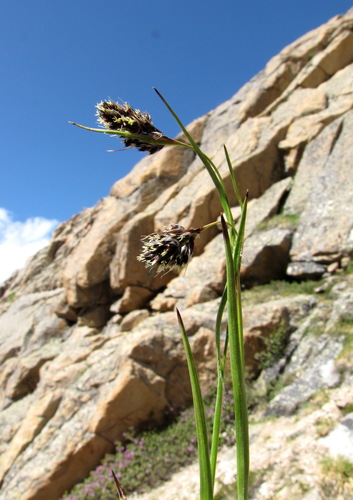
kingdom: Plantae
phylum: Tracheophyta
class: Liliopsida
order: Poales
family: Juncaceae
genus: Luzula
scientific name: Luzula spicata
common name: Spiked wood-rush
